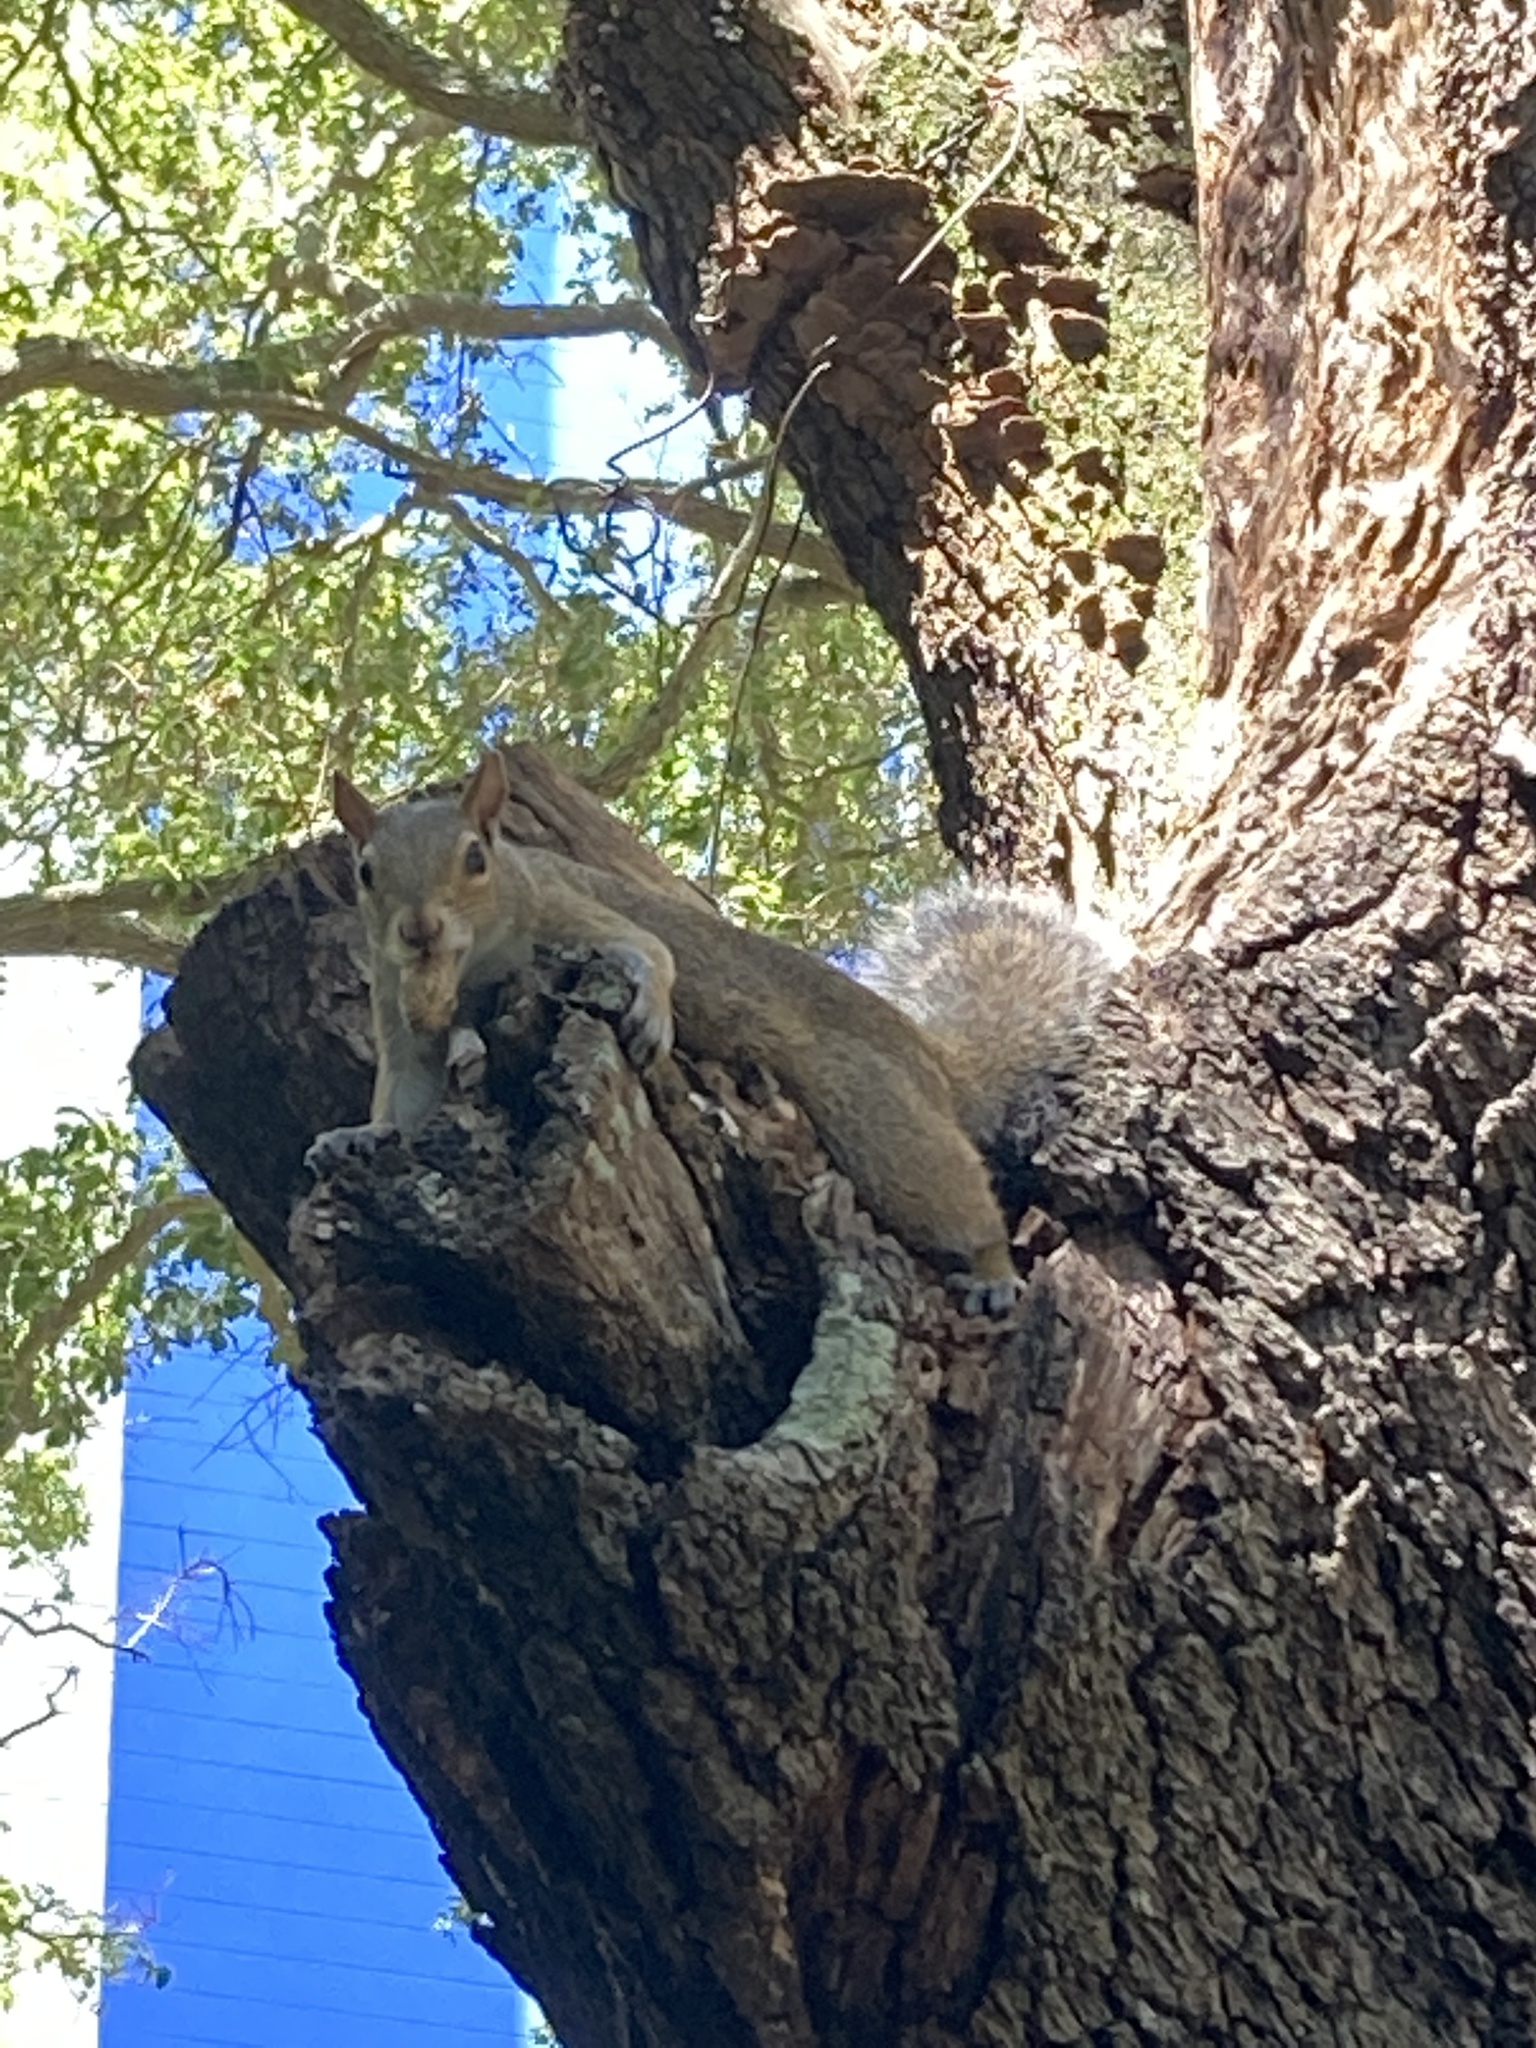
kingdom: Animalia
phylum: Chordata
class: Mammalia
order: Rodentia
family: Sciuridae
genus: Sciurus
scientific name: Sciurus carolinensis
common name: Eastern gray squirrel
